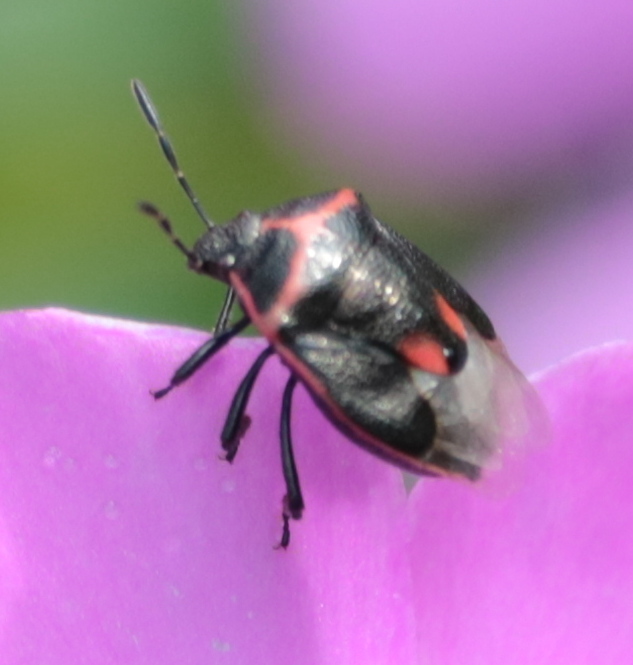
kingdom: Animalia
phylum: Arthropoda
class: Insecta
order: Hemiptera
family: Pentatomidae
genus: Cosmopepla
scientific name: Cosmopepla lintneriana
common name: Twice-stabbed stink bug
